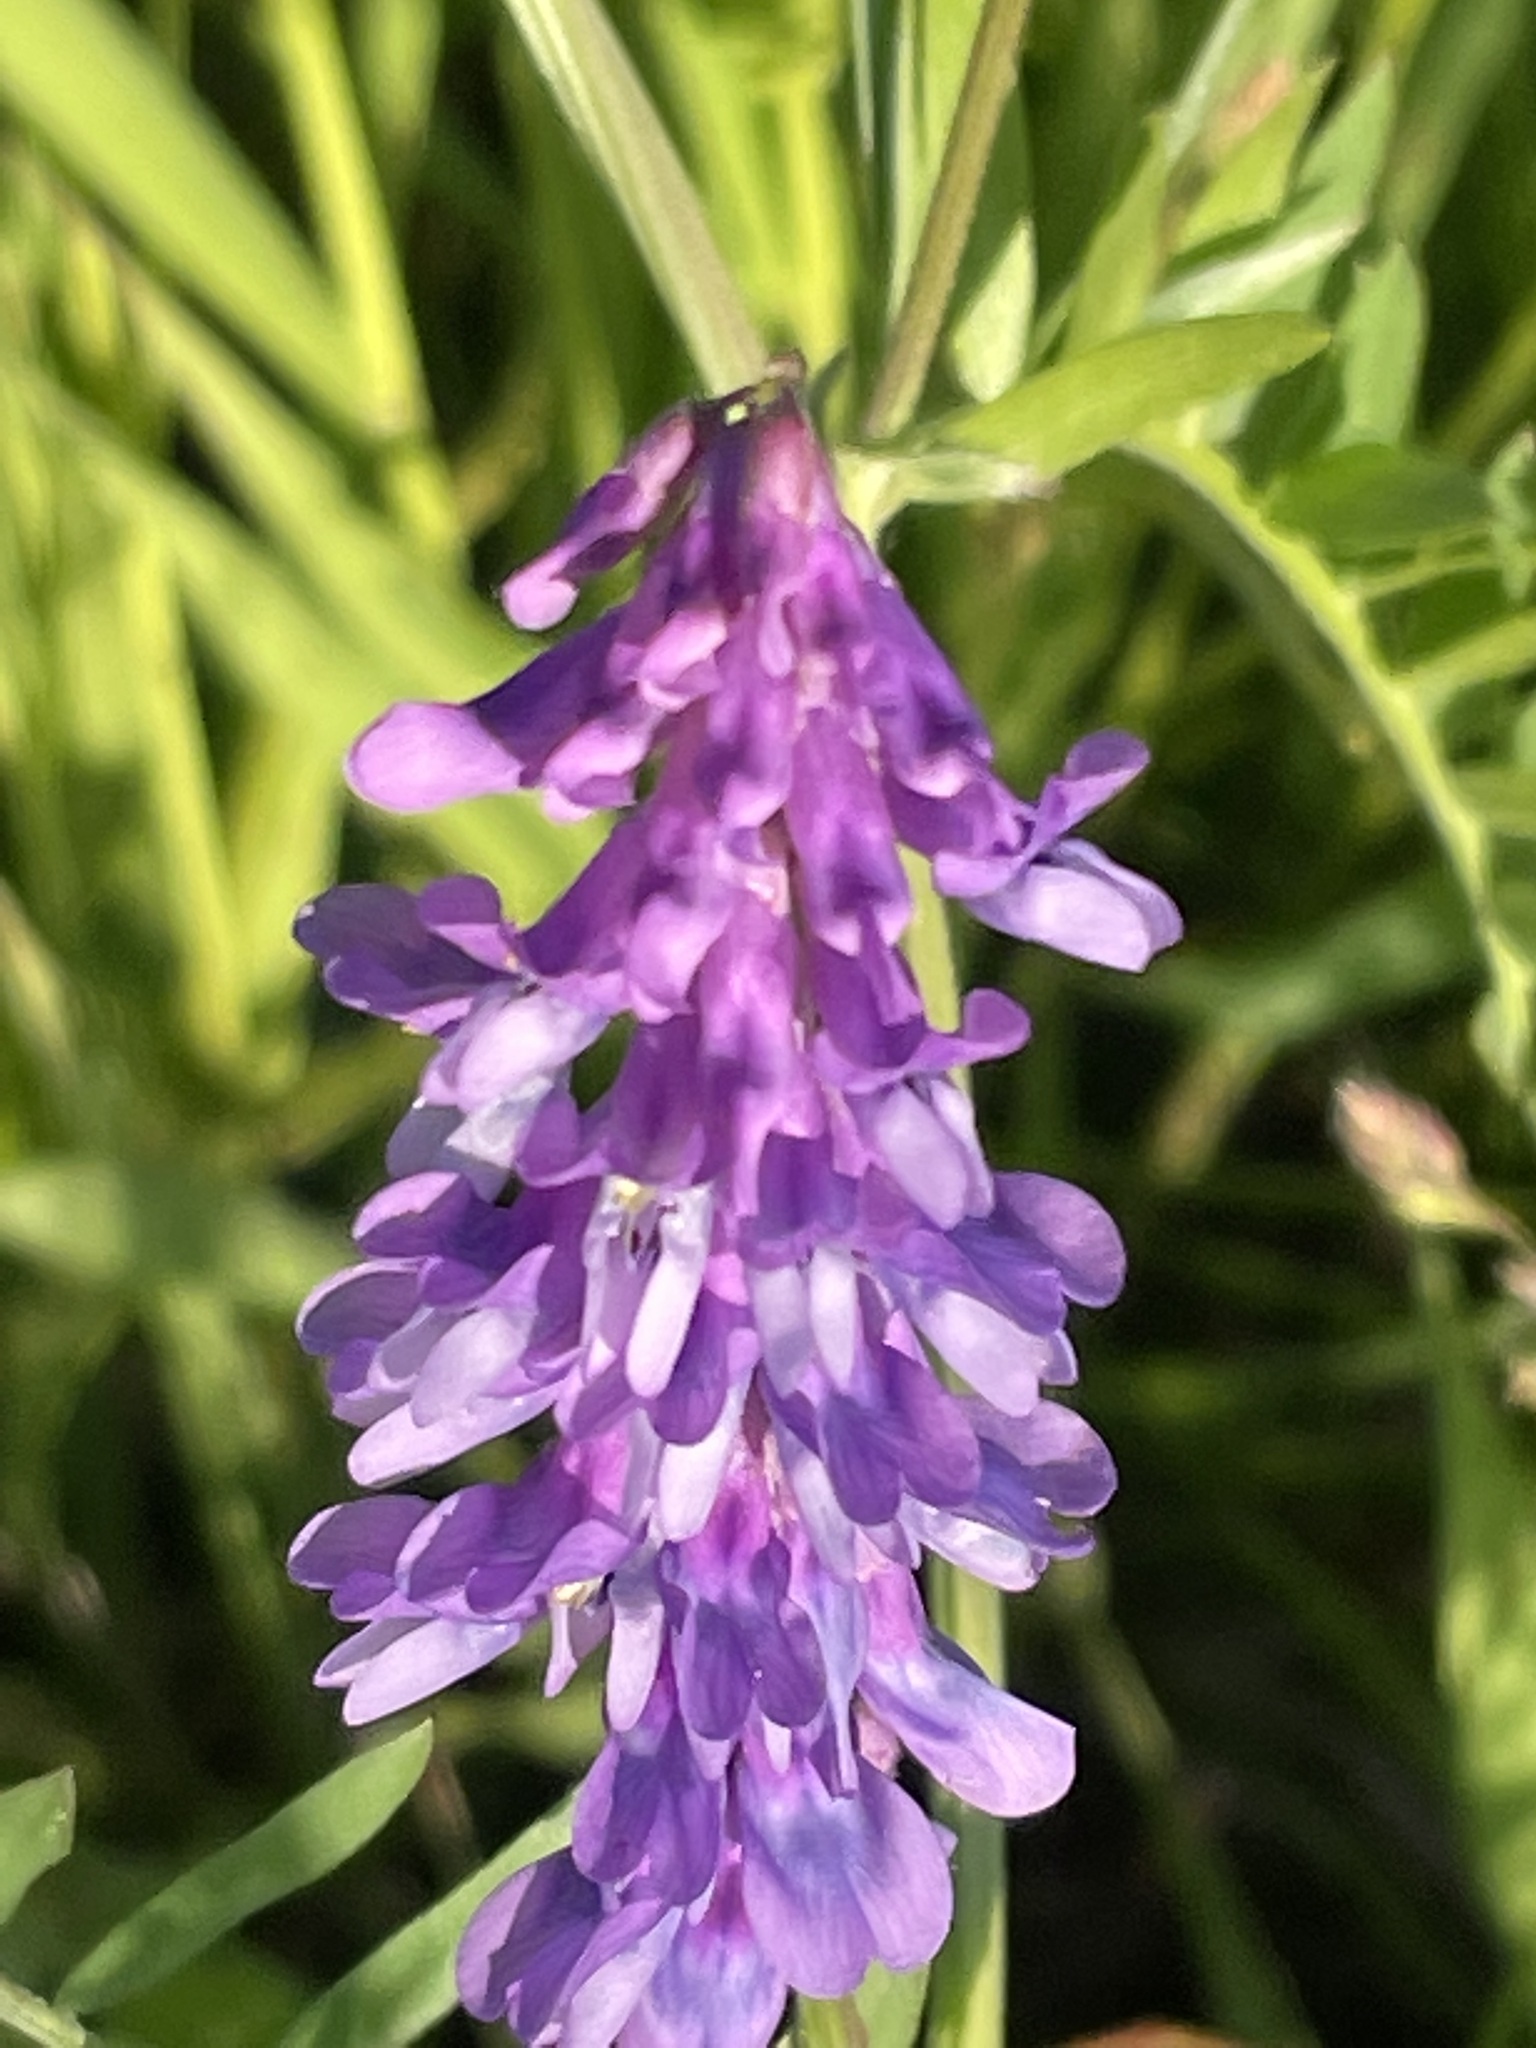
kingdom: Plantae
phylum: Tracheophyta
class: Magnoliopsida
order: Fabales
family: Fabaceae
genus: Vicia
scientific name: Vicia cracca
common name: Bird vetch
